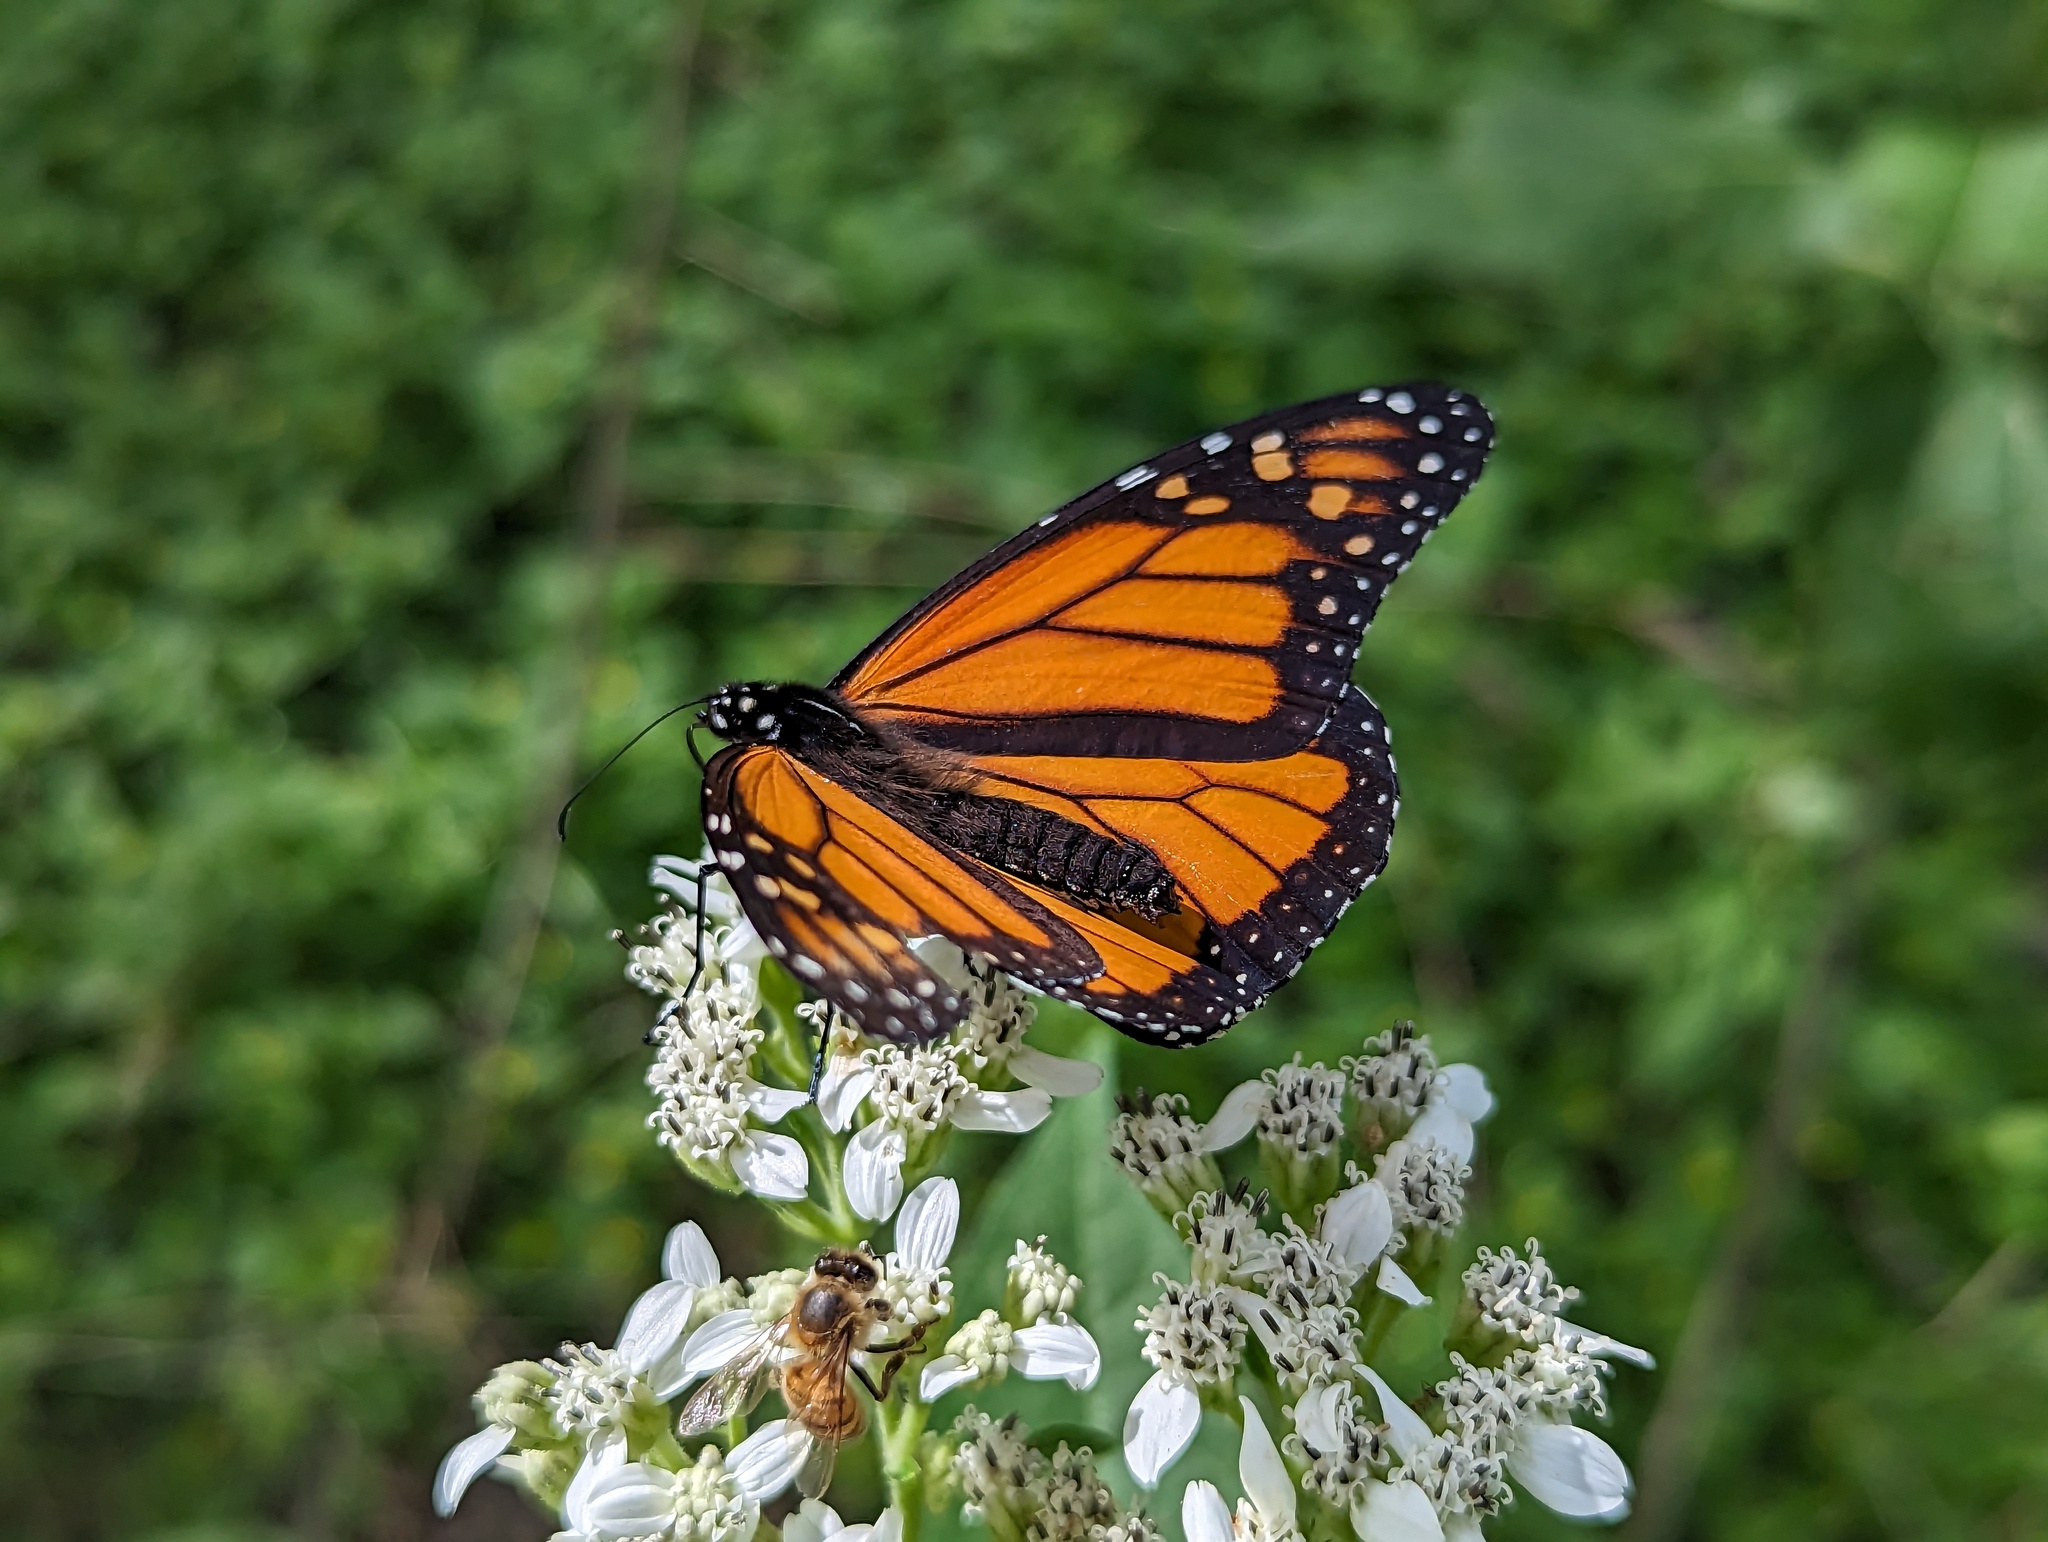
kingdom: Animalia
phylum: Arthropoda
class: Insecta
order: Lepidoptera
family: Nymphalidae
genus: Danaus
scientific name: Danaus plexippus
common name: Monarch
